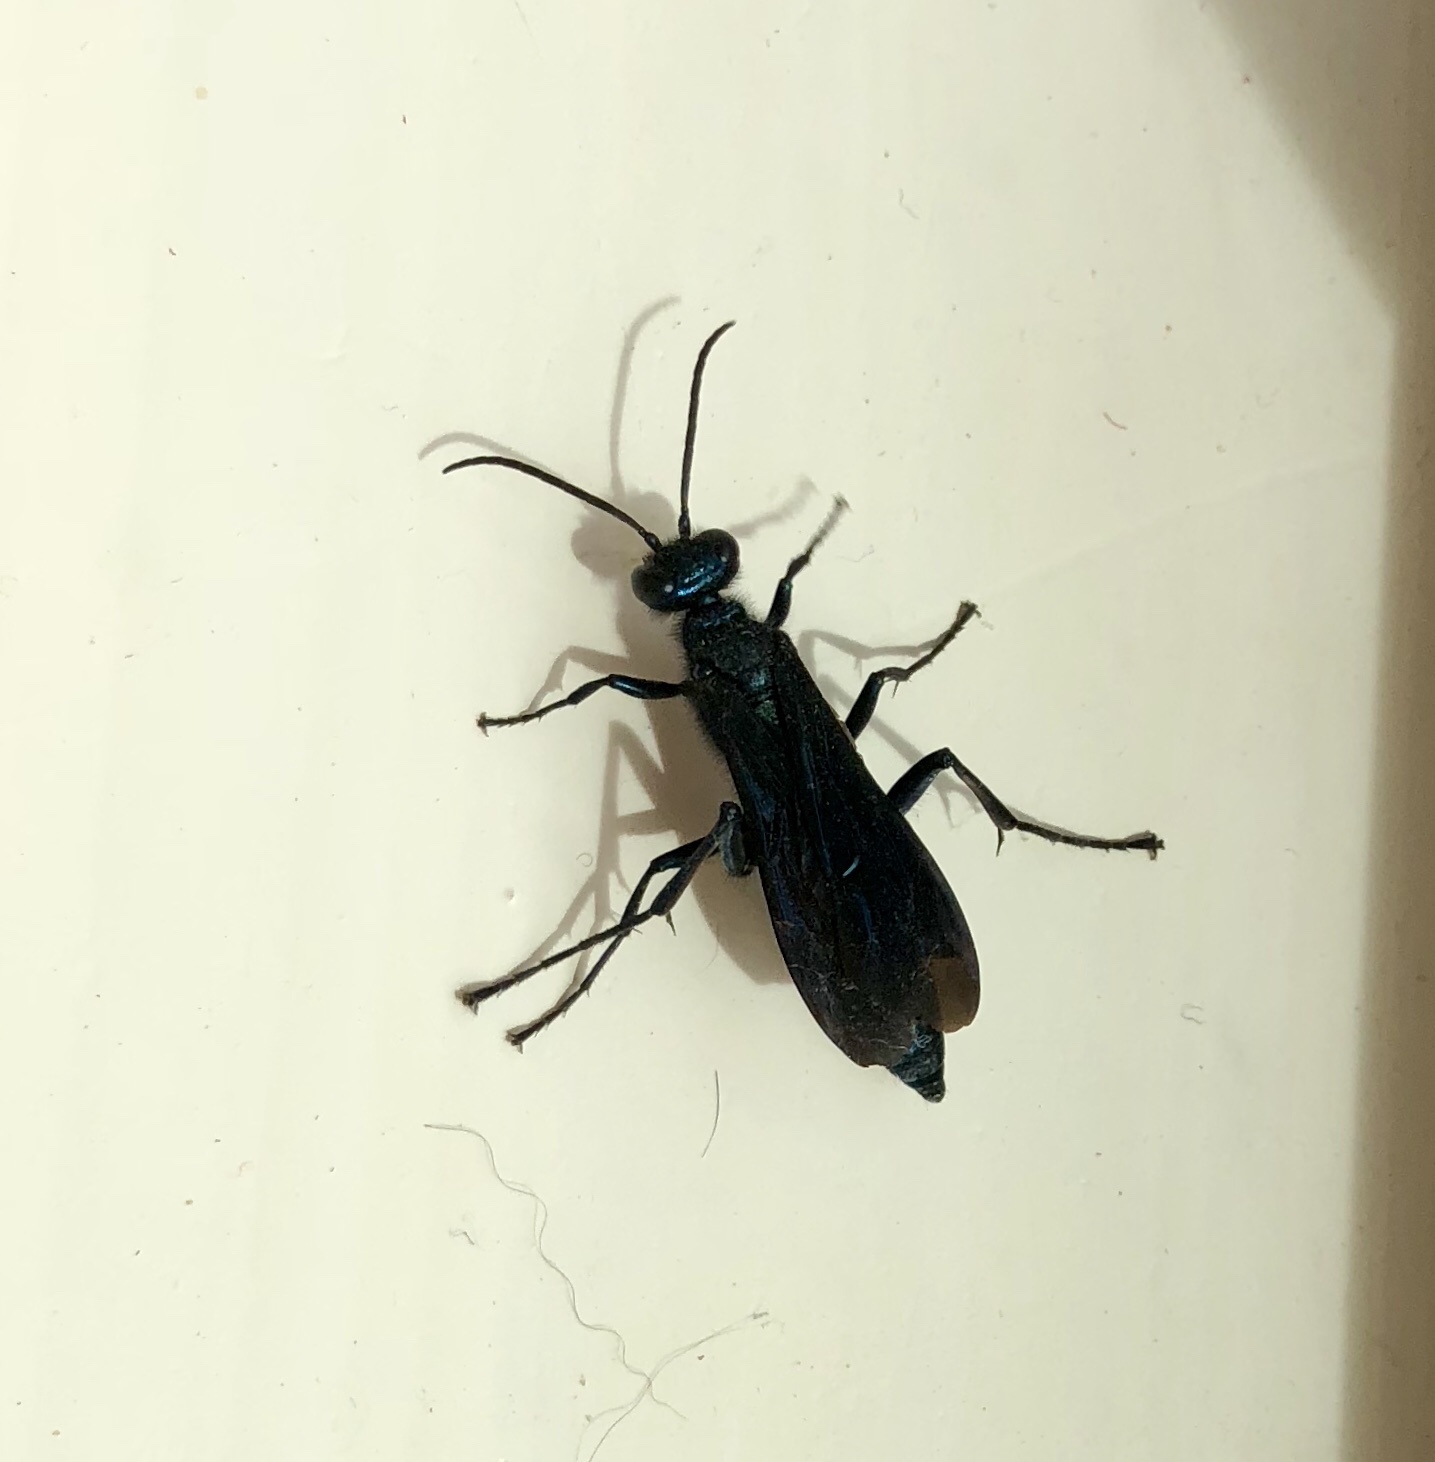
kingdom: Animalia
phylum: Arthropoda
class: Insecta
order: Hymenoptera
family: Sphecidae
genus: Chalybion
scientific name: Chalybion californicum
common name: Mud dauber
